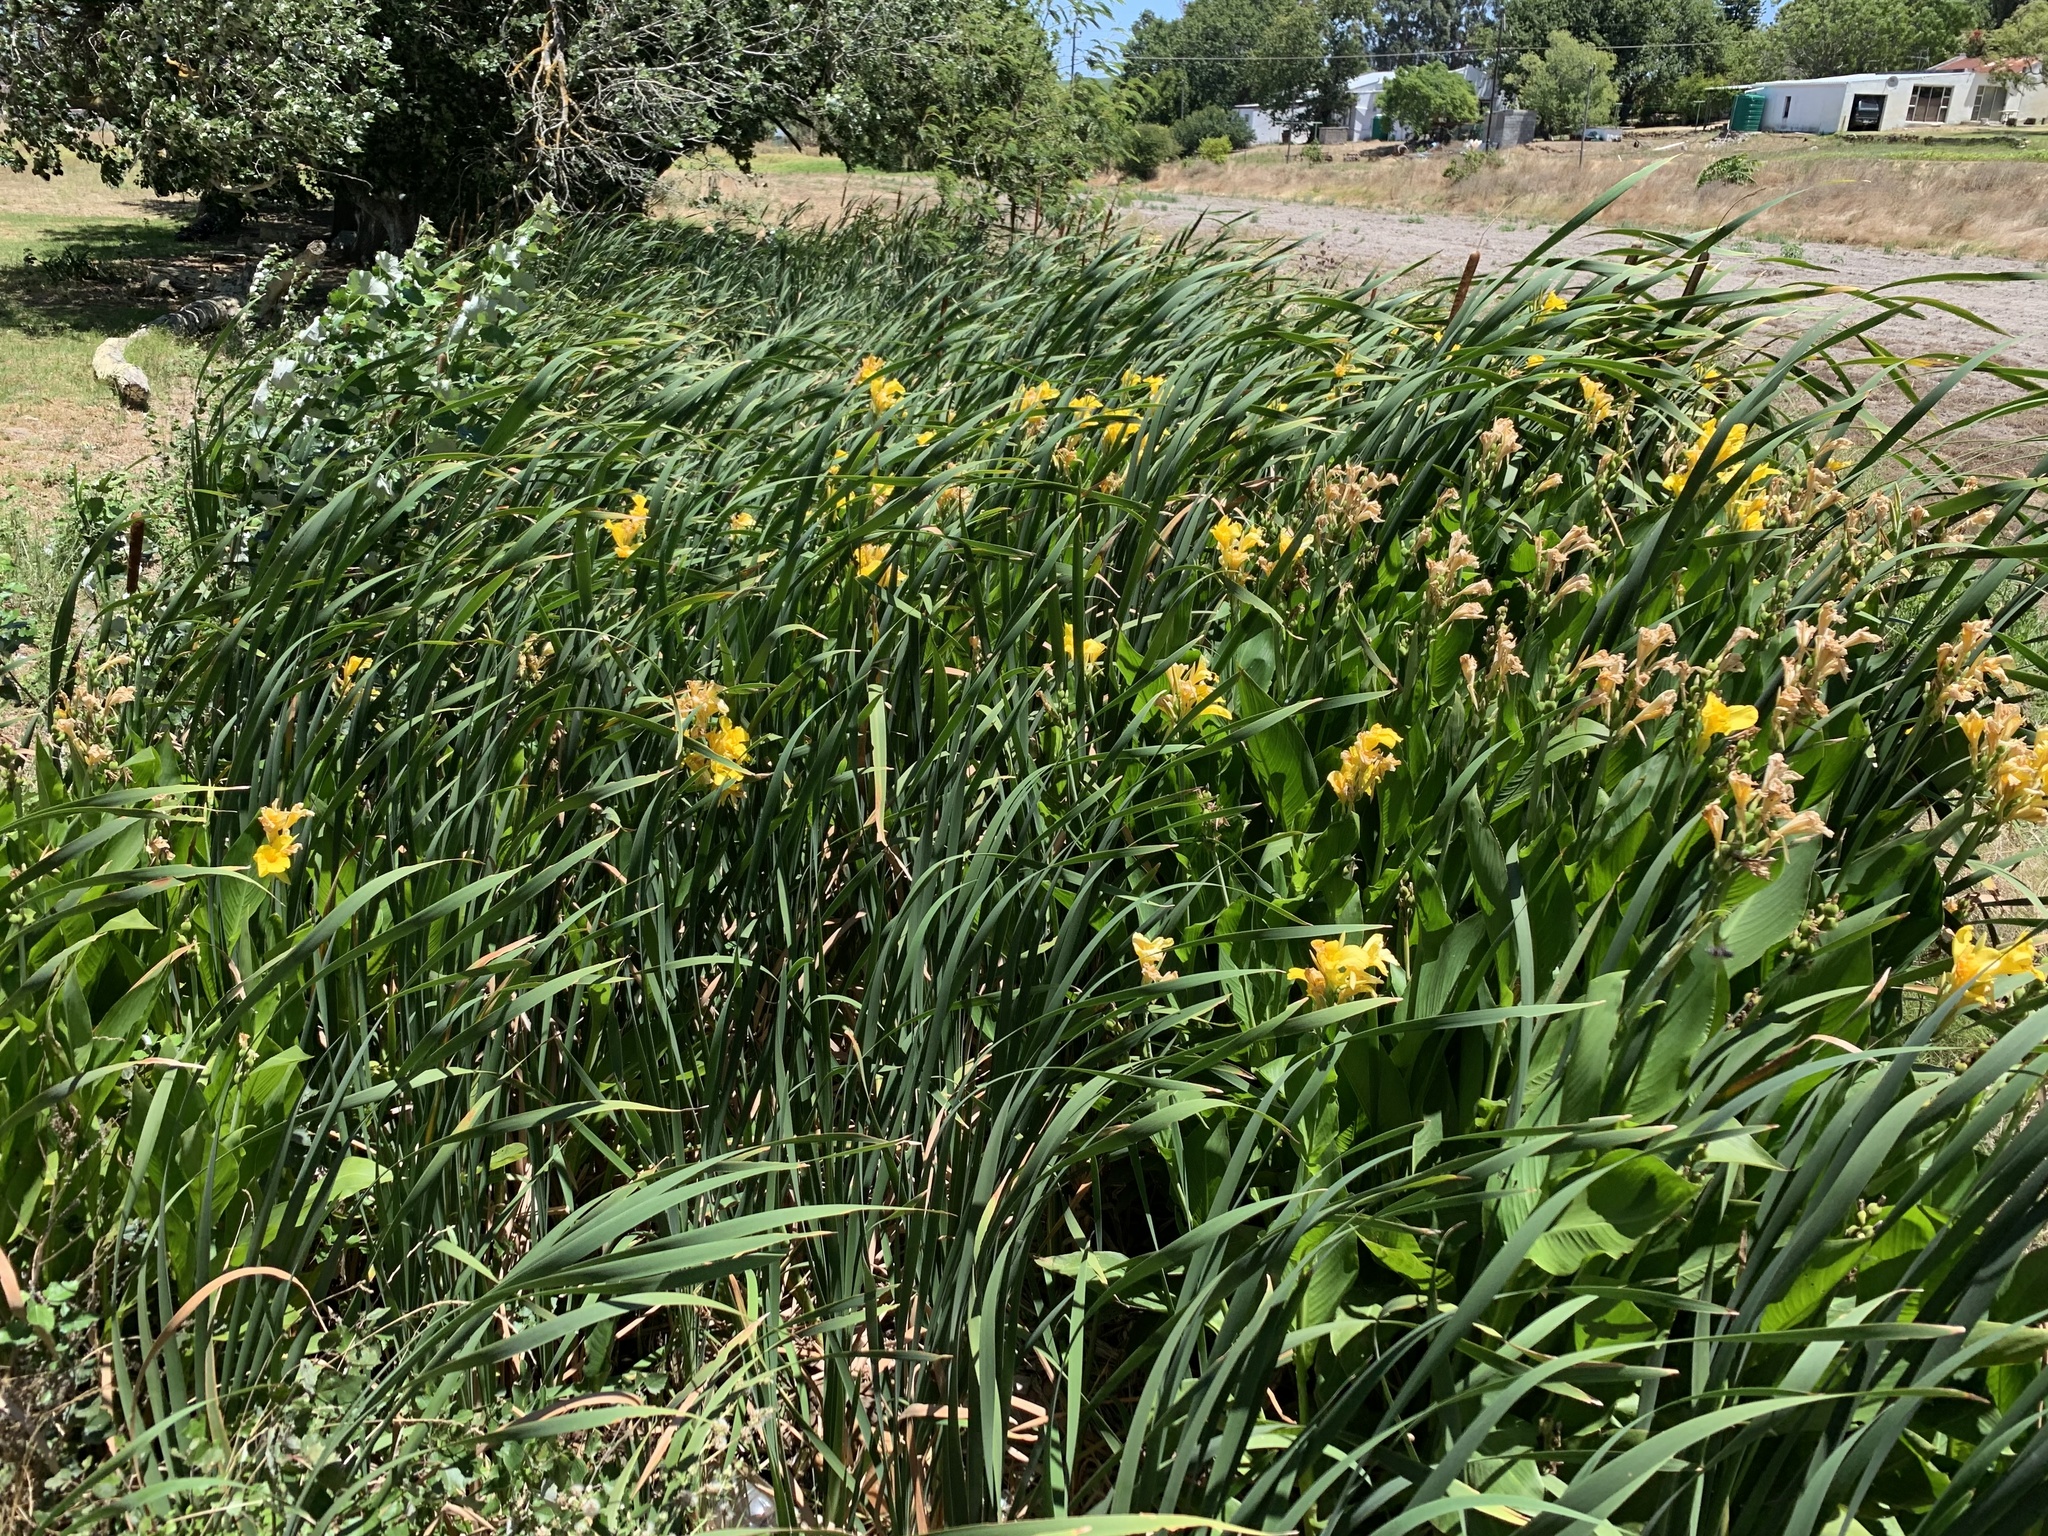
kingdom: Plantae
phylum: Tracheophyta
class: Liliopsida
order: Zingiberales
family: Cannaceae
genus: Canna
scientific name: Canna hybrida
